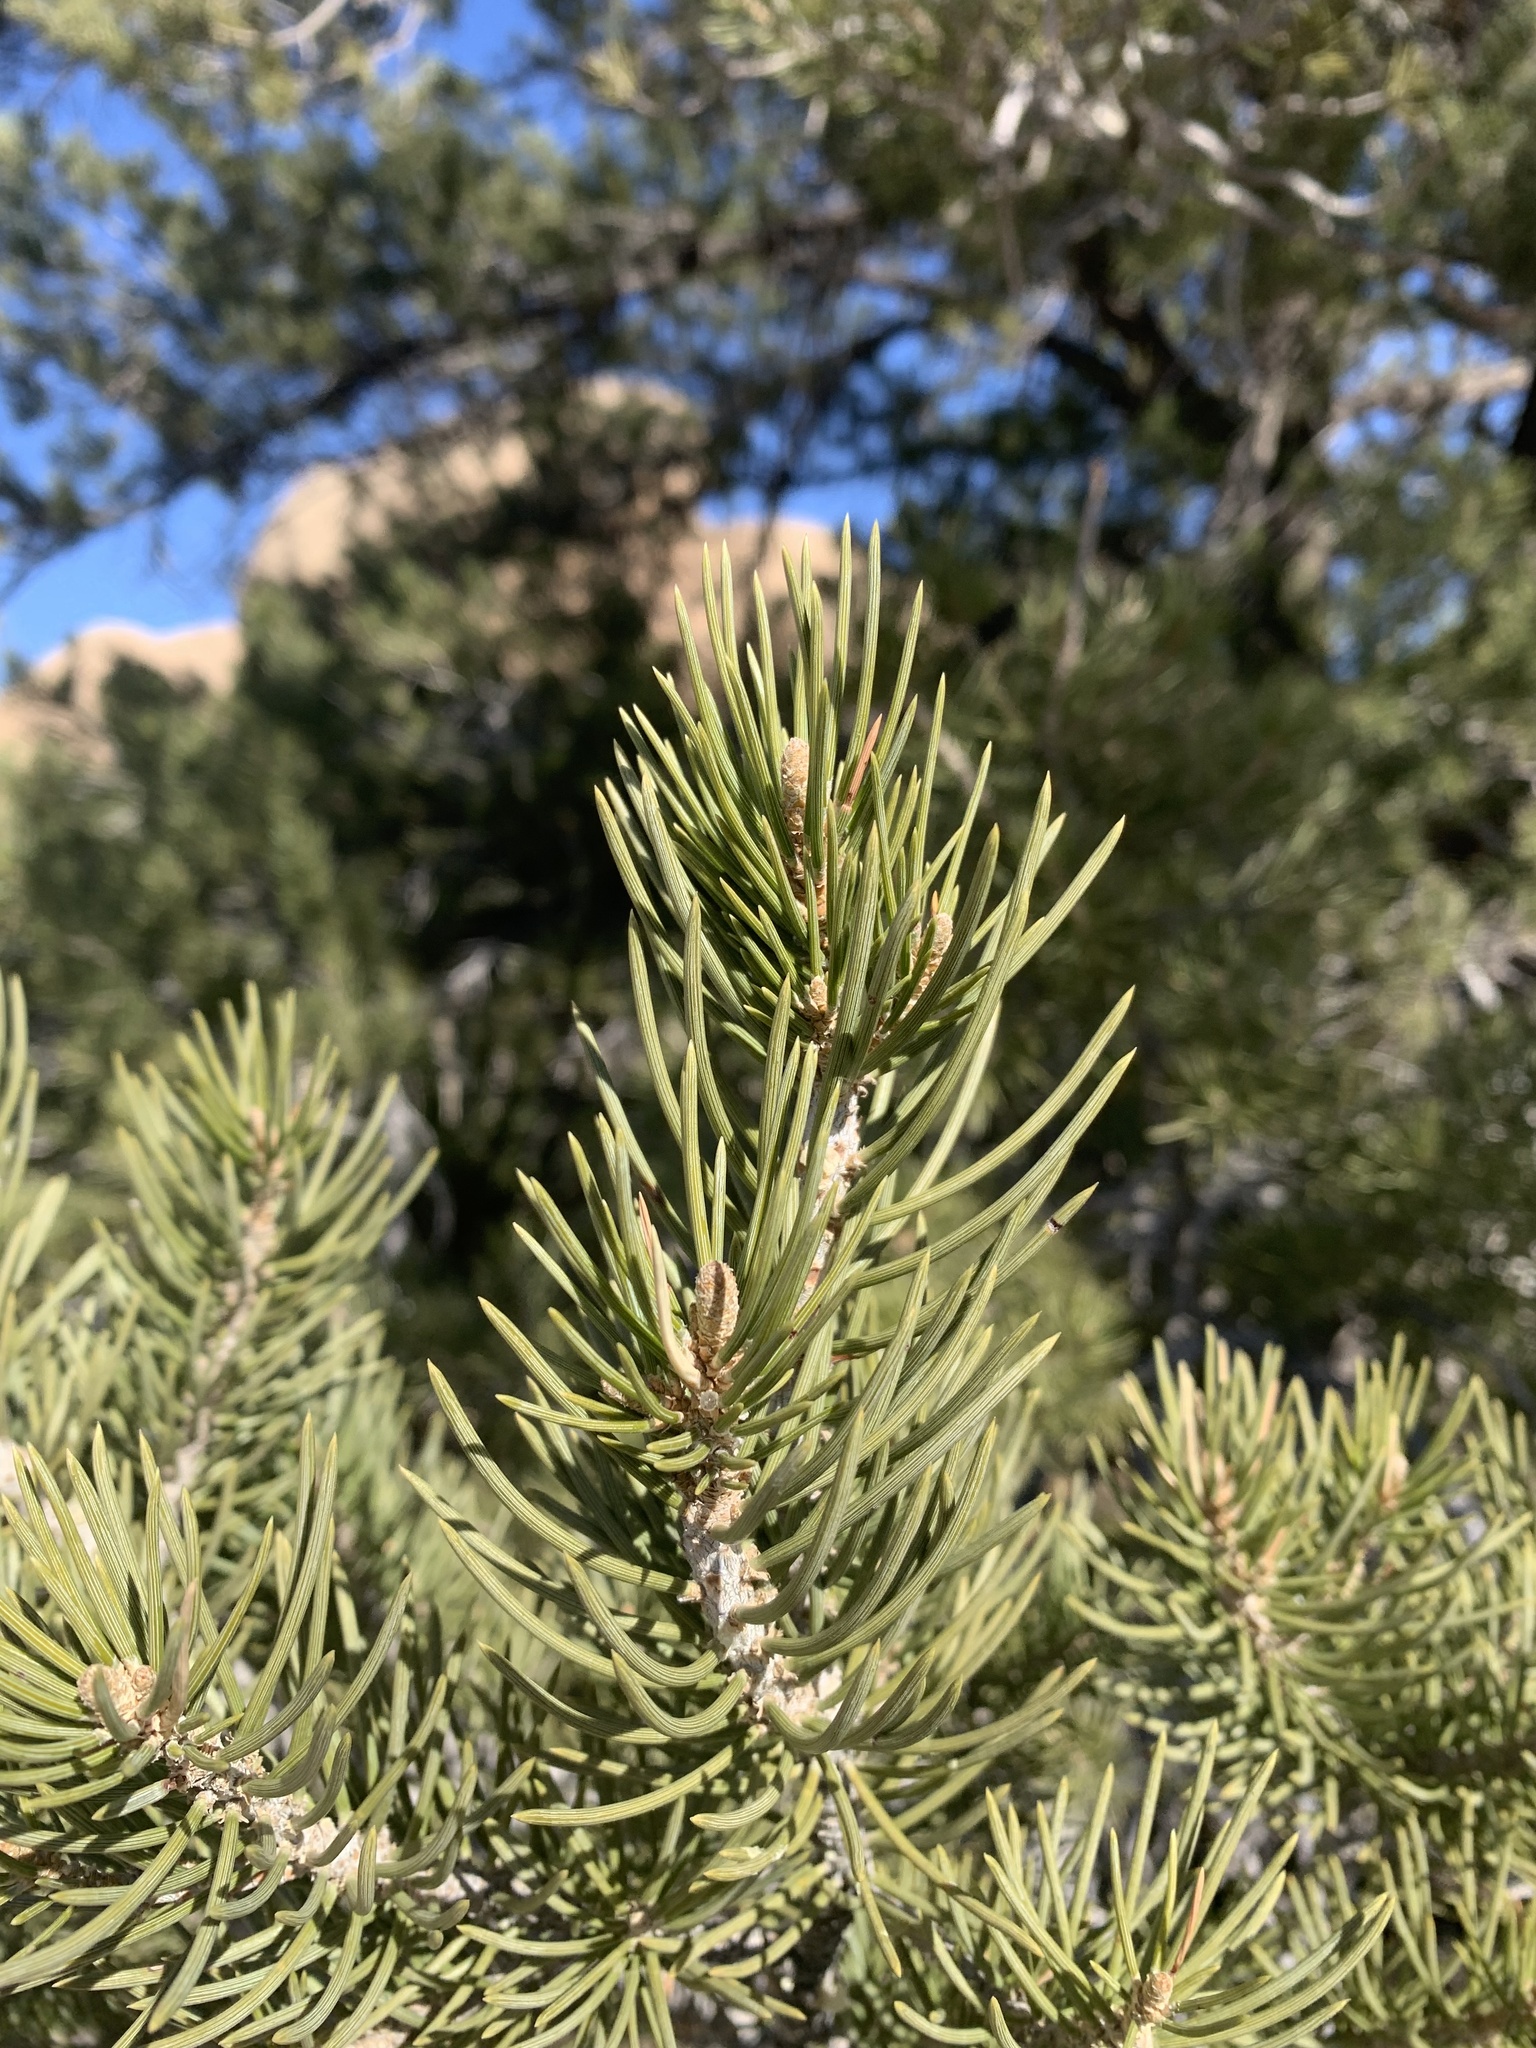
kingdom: Plantae
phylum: Tracheophyta
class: Pinopsida
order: Pinales
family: Pinaceae
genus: Pinus
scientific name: Pinus monophylla
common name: One-leaved nut pine
